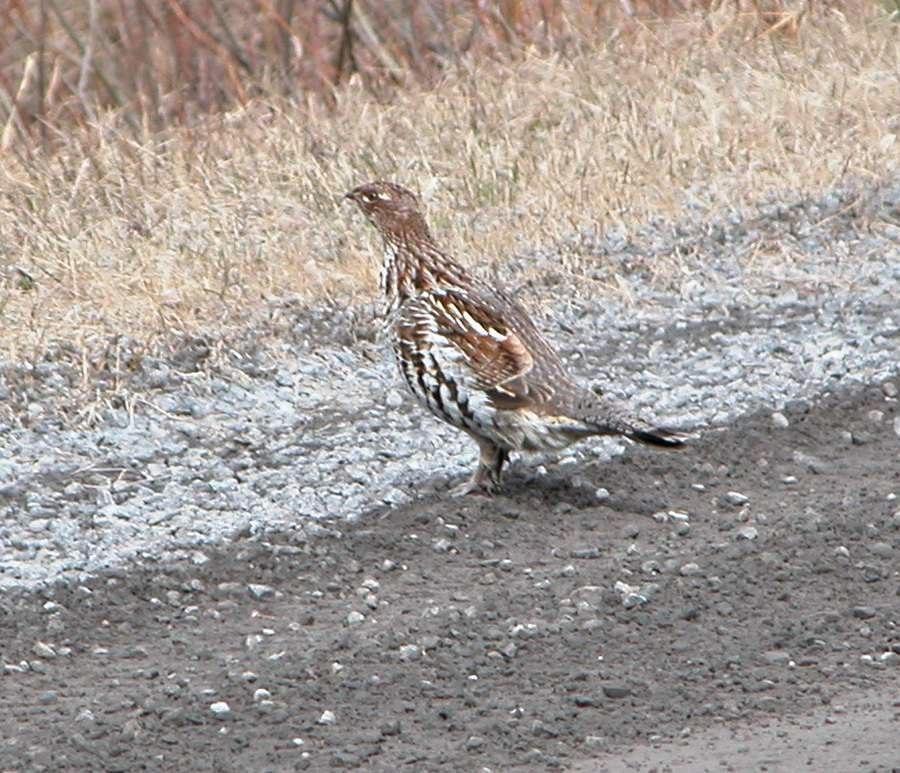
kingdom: Animalia
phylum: Chordata
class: Aves
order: Galliformes
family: Phasianidae
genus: Bonasa
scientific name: Bonasa umbellus
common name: Ruffed grouse
